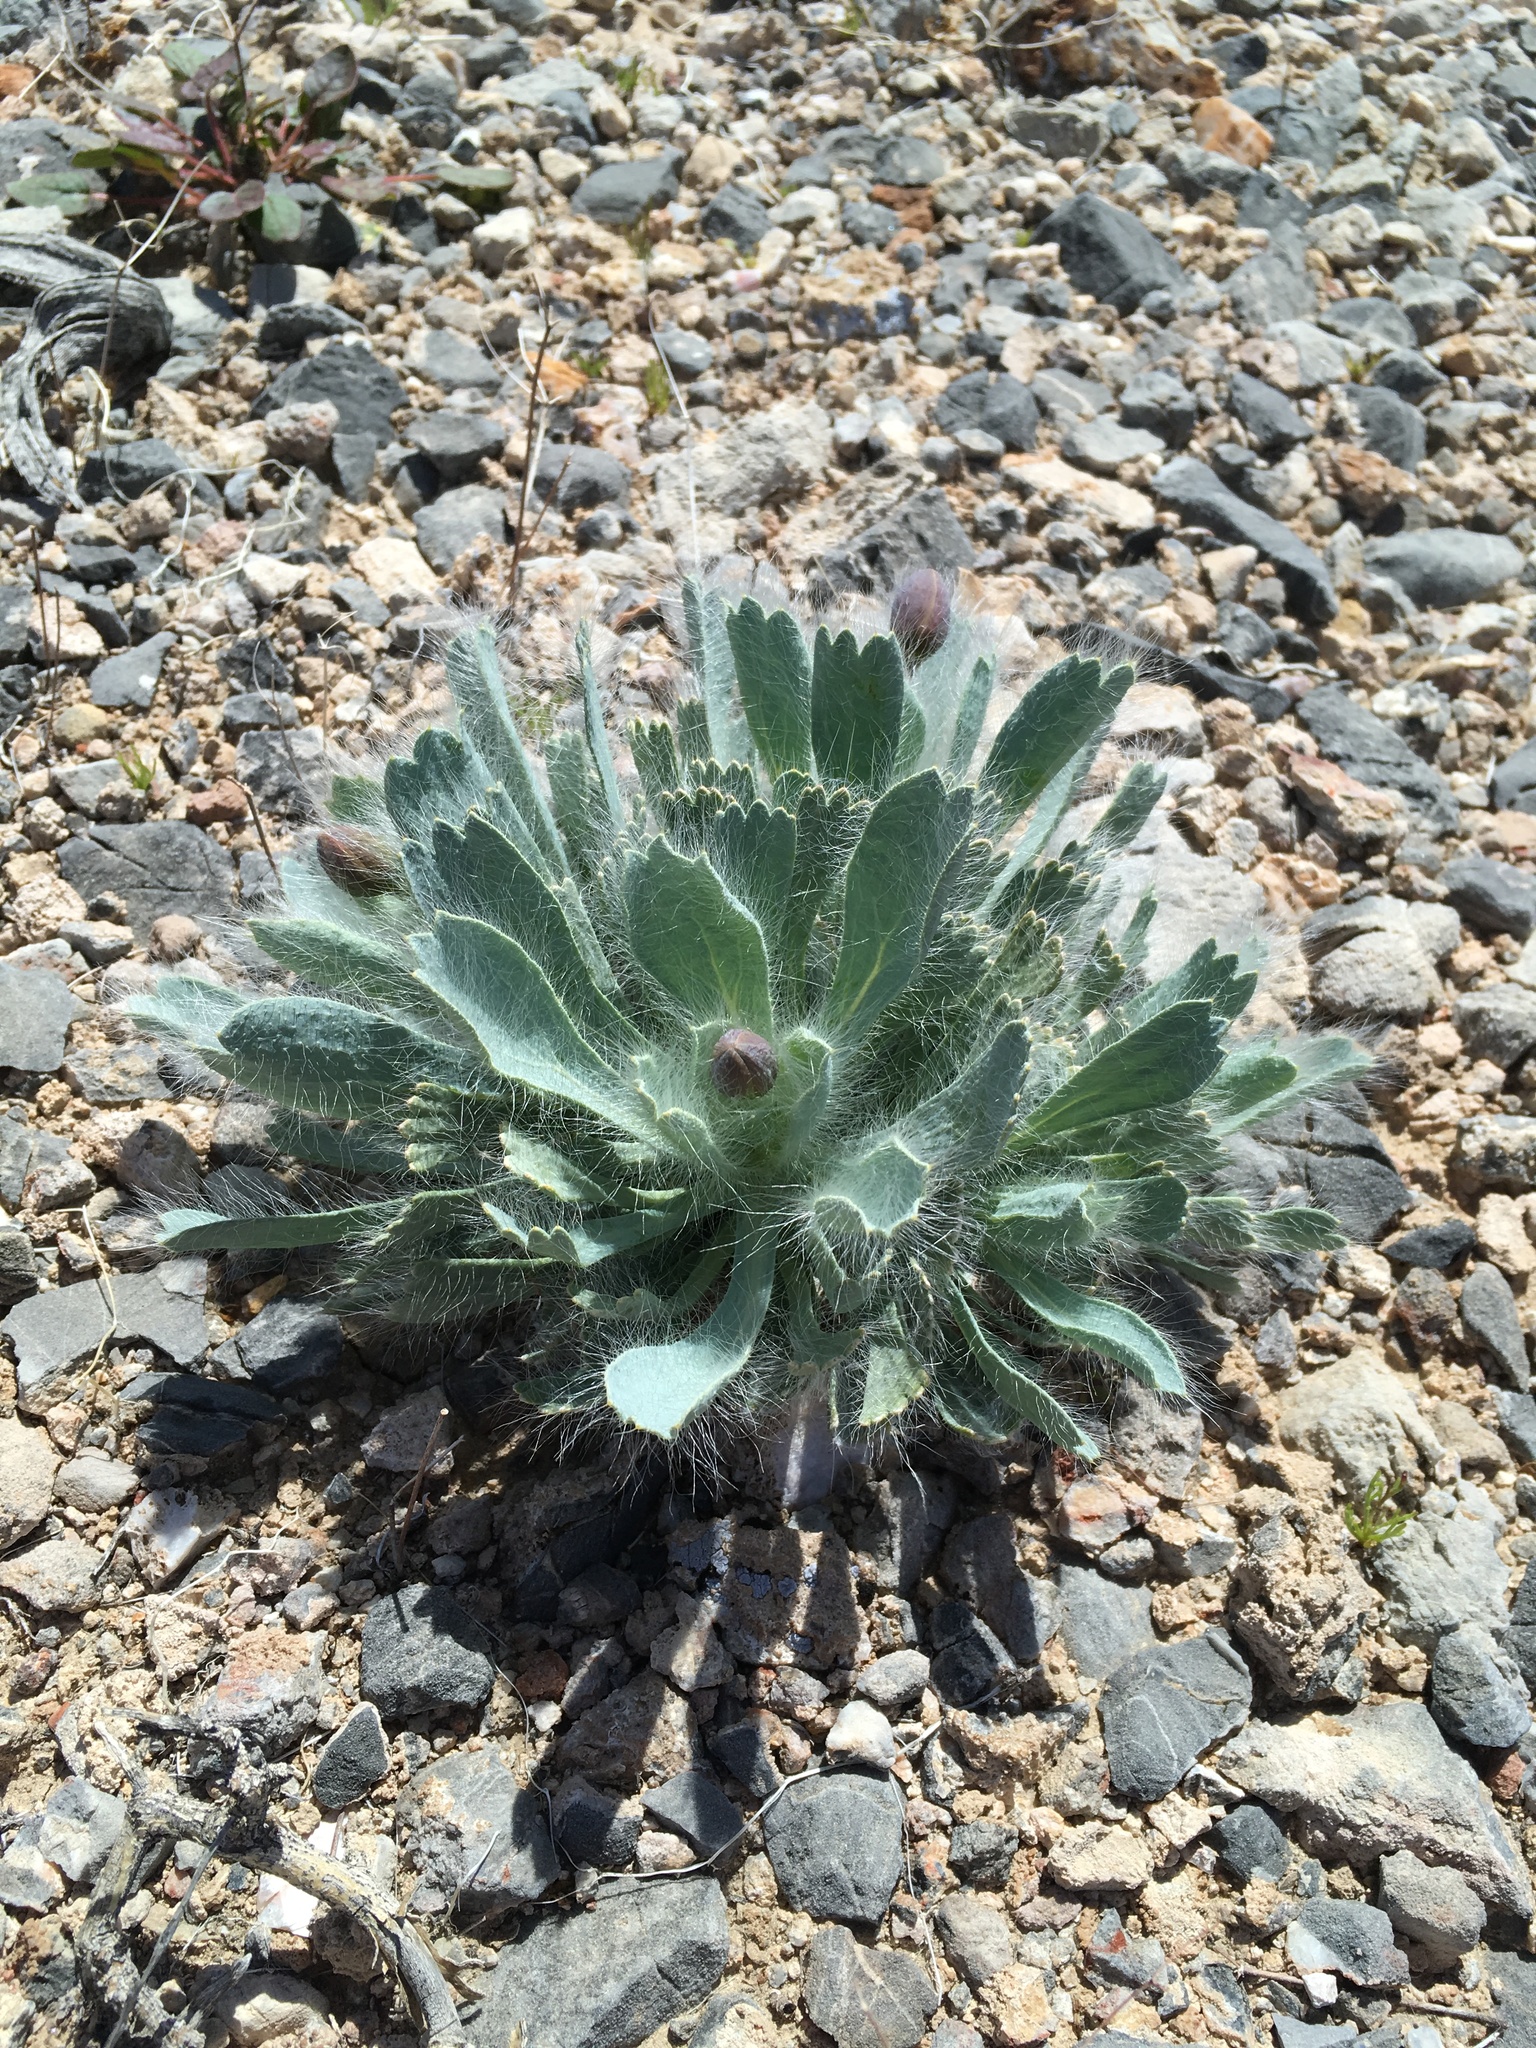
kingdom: Plantae
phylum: Tracheophyta
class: Magnoliopsida
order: Ranunculales
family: Papaveraceae
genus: Arctomecon
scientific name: Arctomecon merriamii
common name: White bear-poppy
